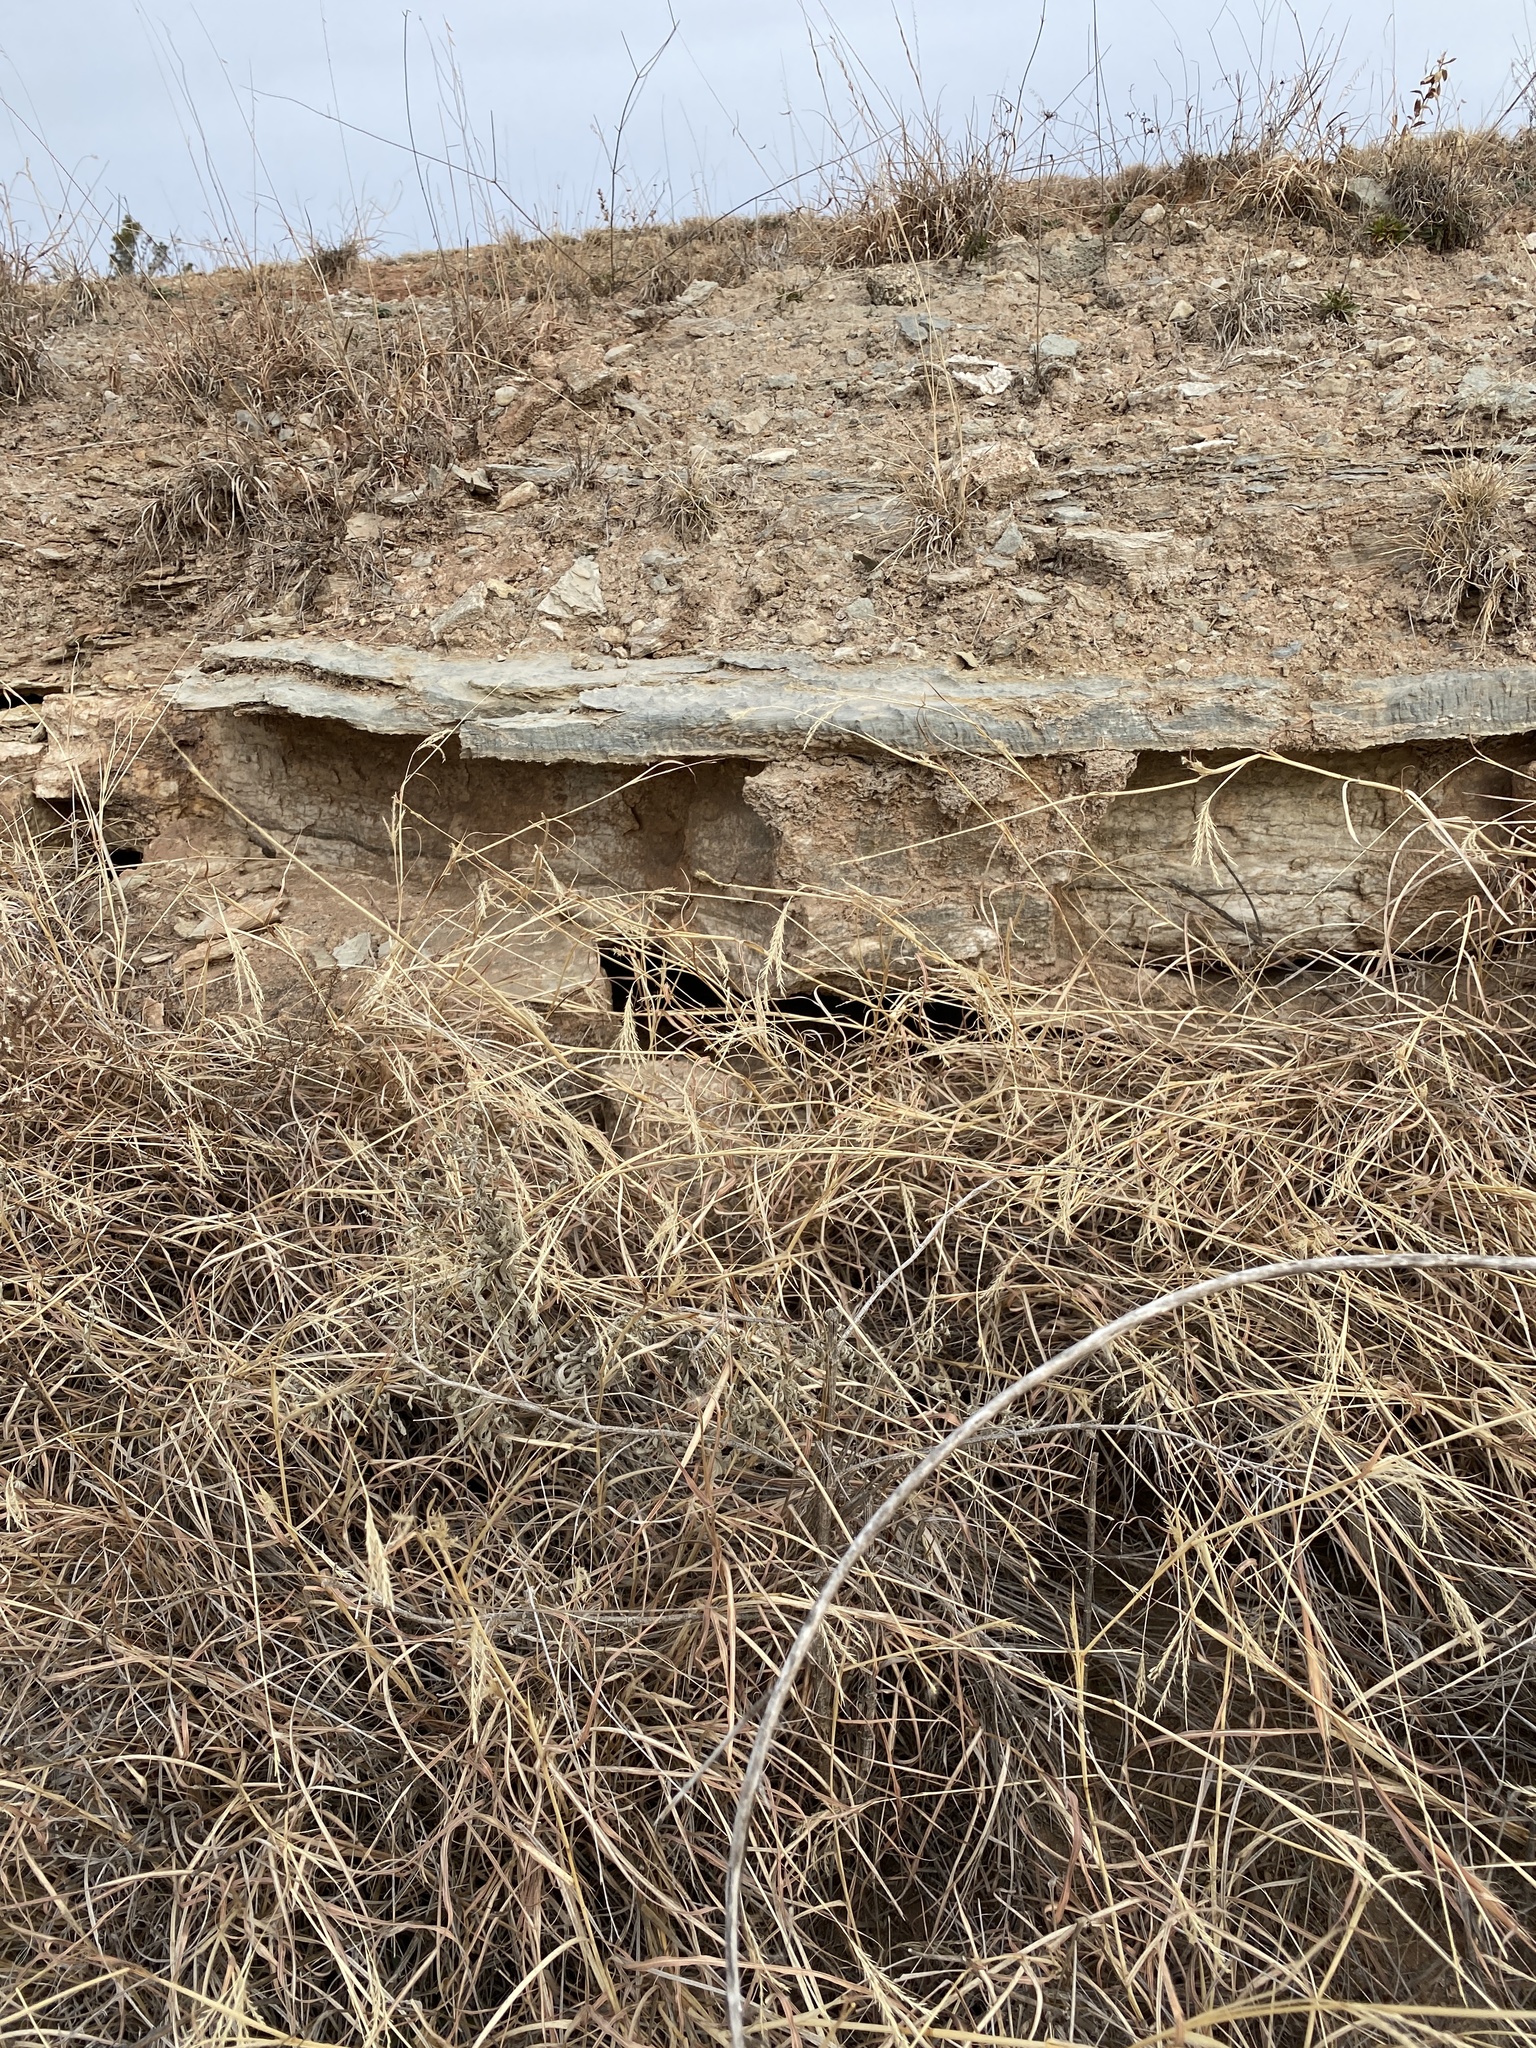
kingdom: Plantae
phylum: Tracheophyta
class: Liliopsida
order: Poales
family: Poaceae
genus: Bothriochloa
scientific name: Bothriochloa ischaemum
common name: Yellow bluestem
